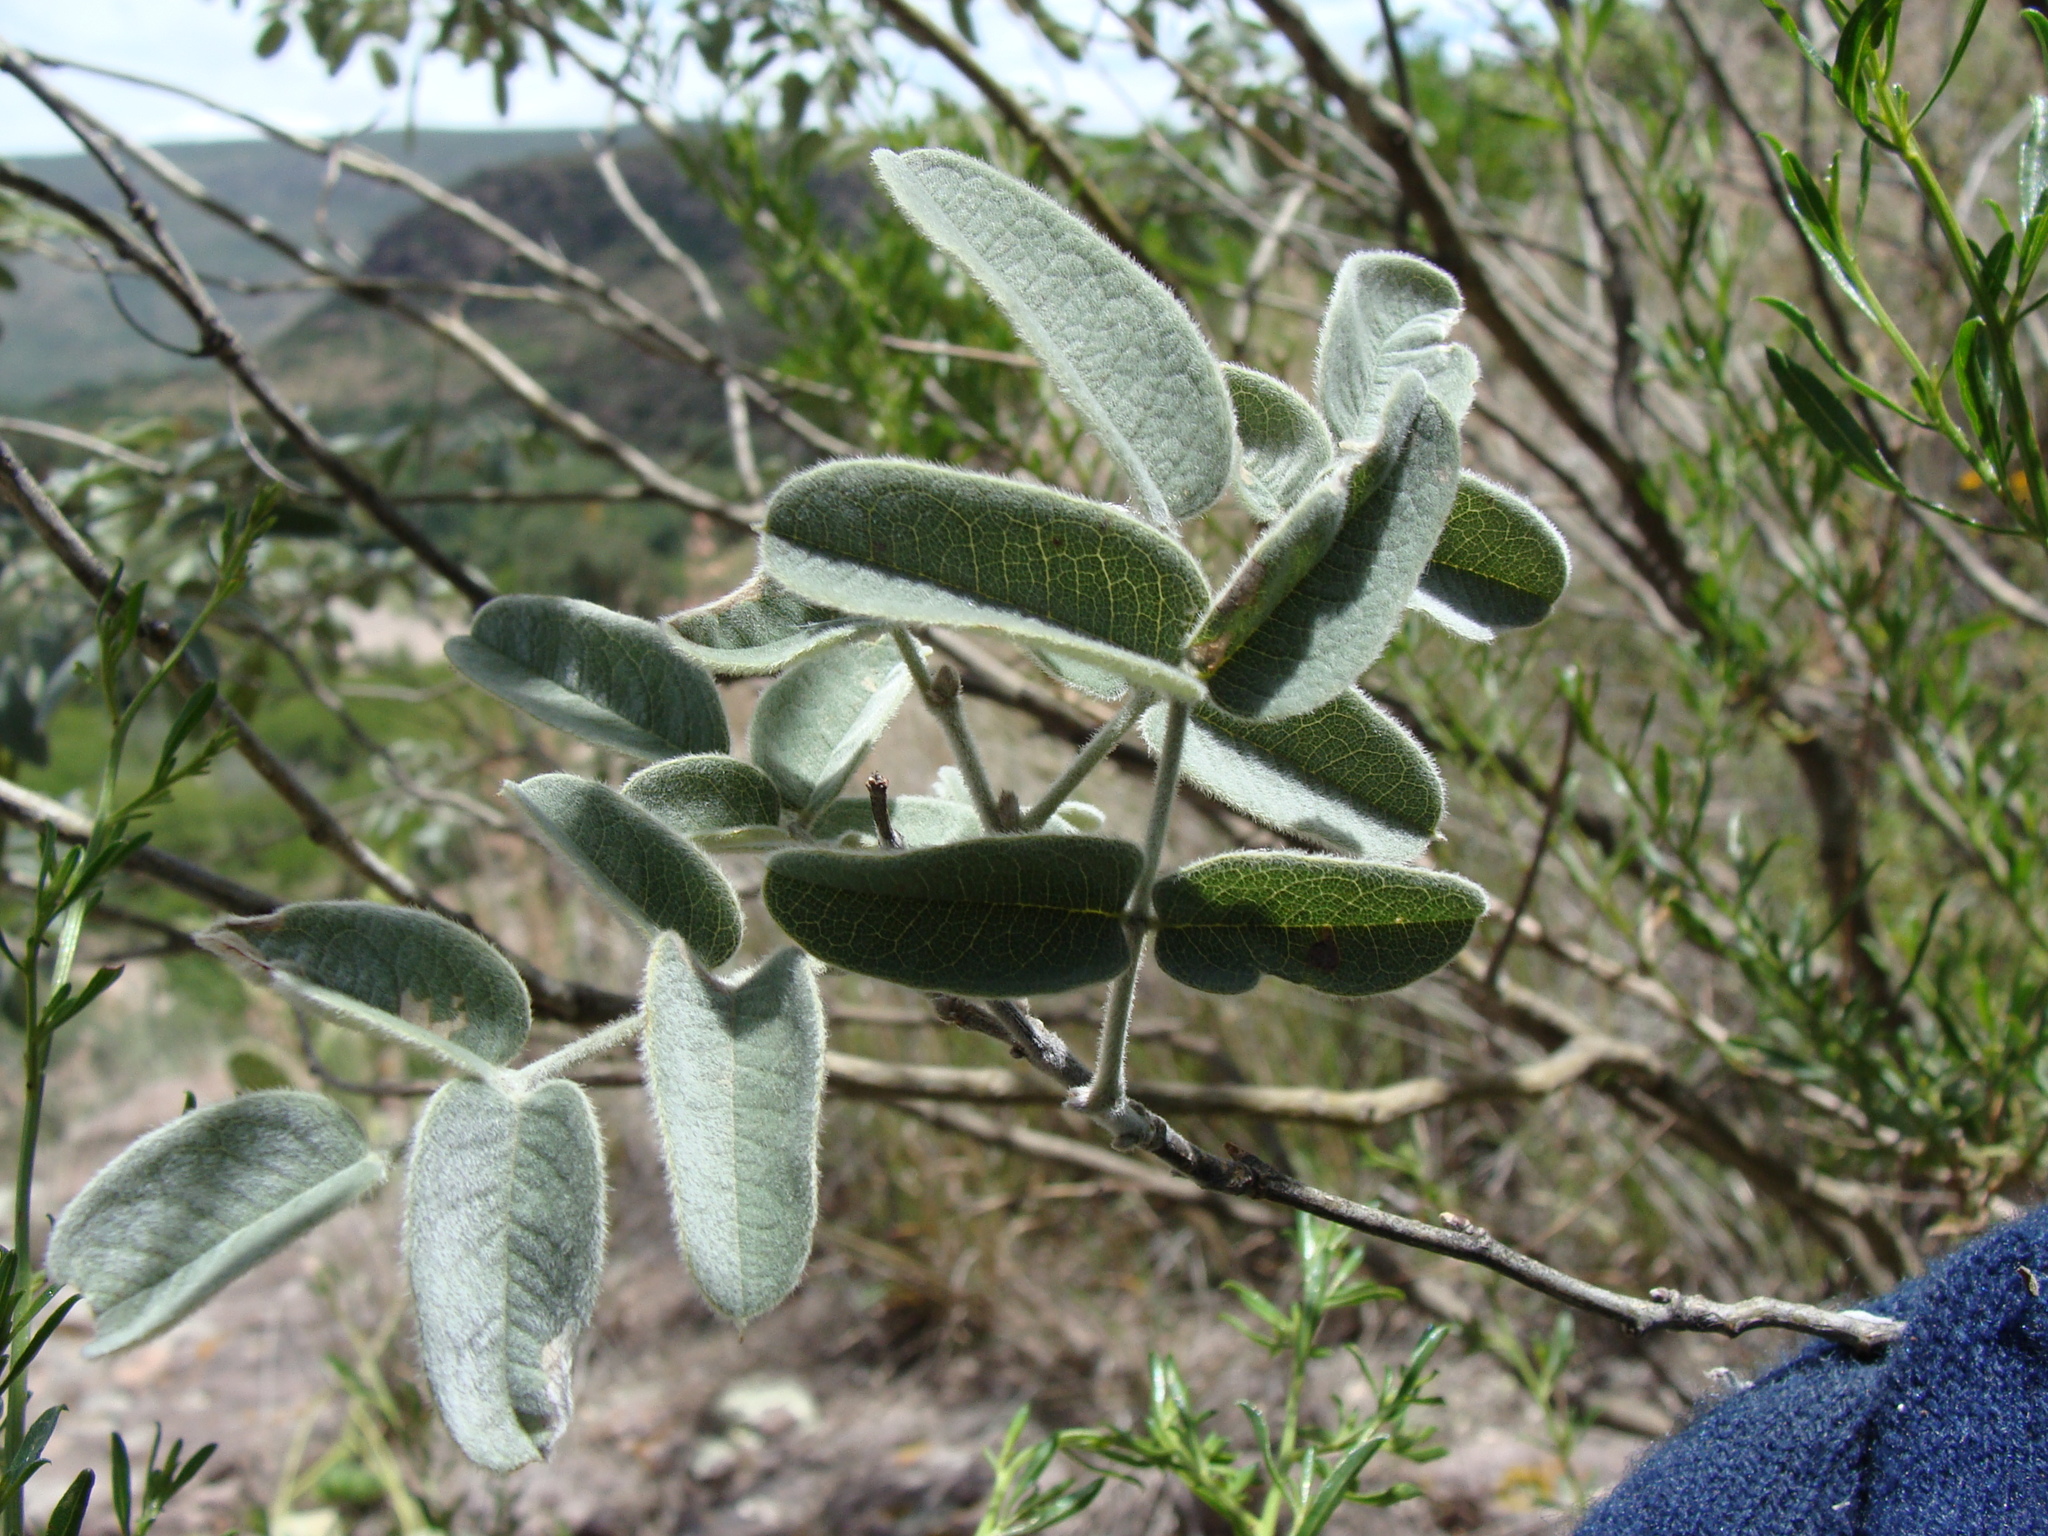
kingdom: Plantae
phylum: Tracheophyta
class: Magnoliopsida
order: Fabales
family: Fabaceae
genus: Brongniartia
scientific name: Brongniartia parryi
